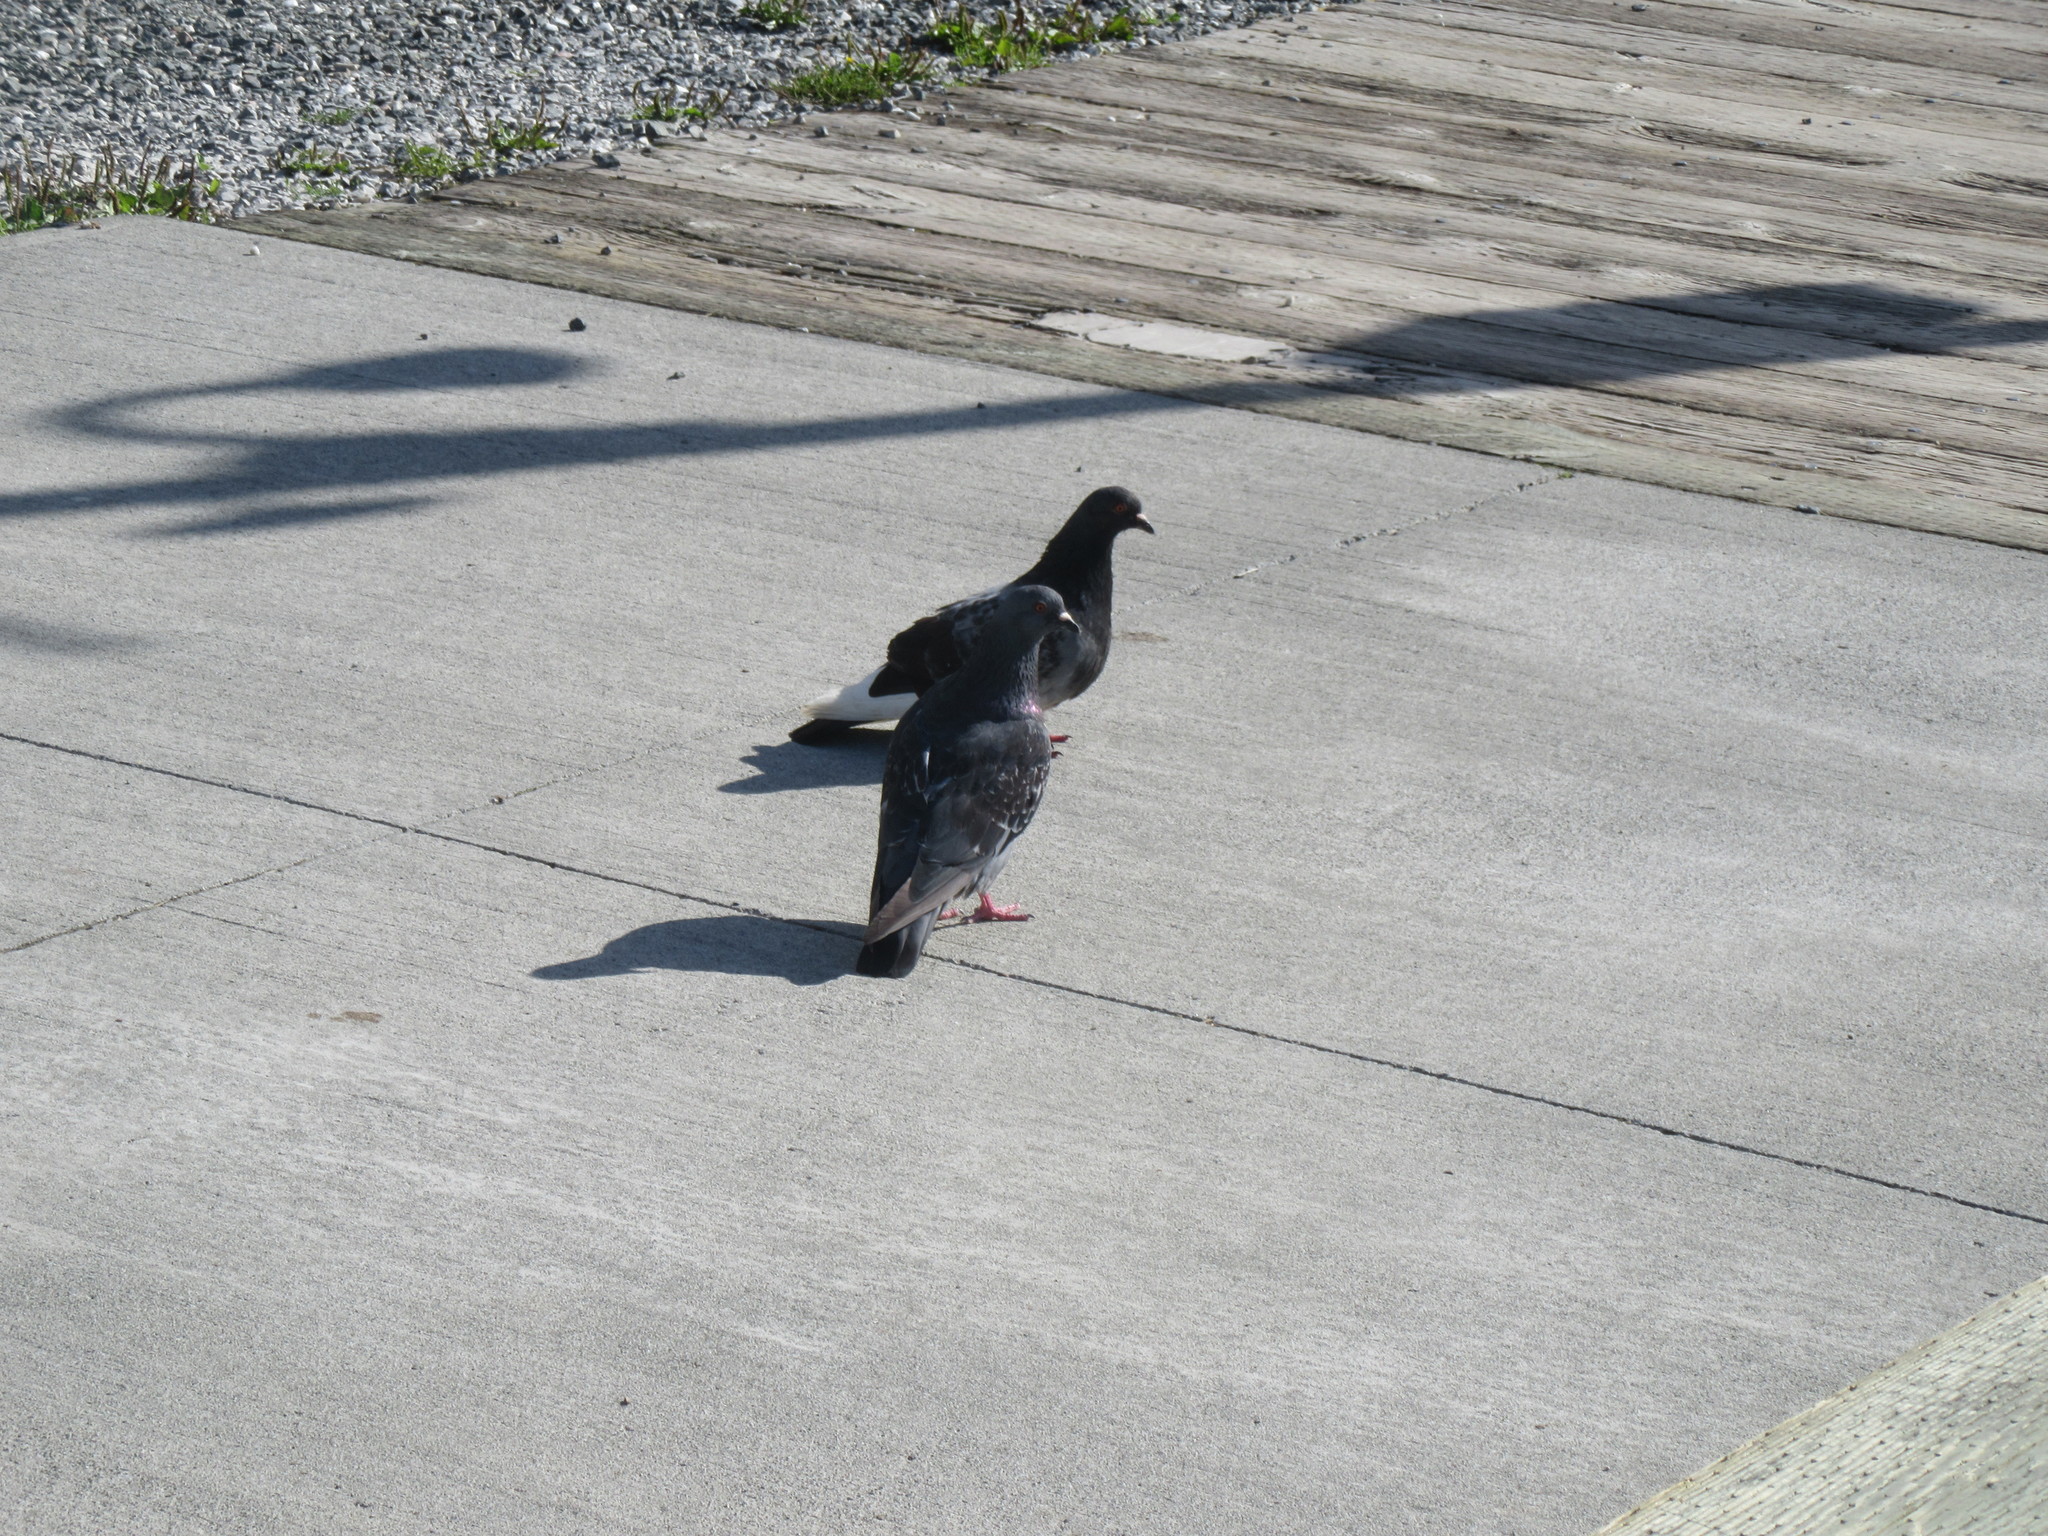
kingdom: Animalia
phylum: Chordata
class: Aves
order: Columbiformes
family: Columbidae
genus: Columba
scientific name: Columba livia
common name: Rock pigeon
